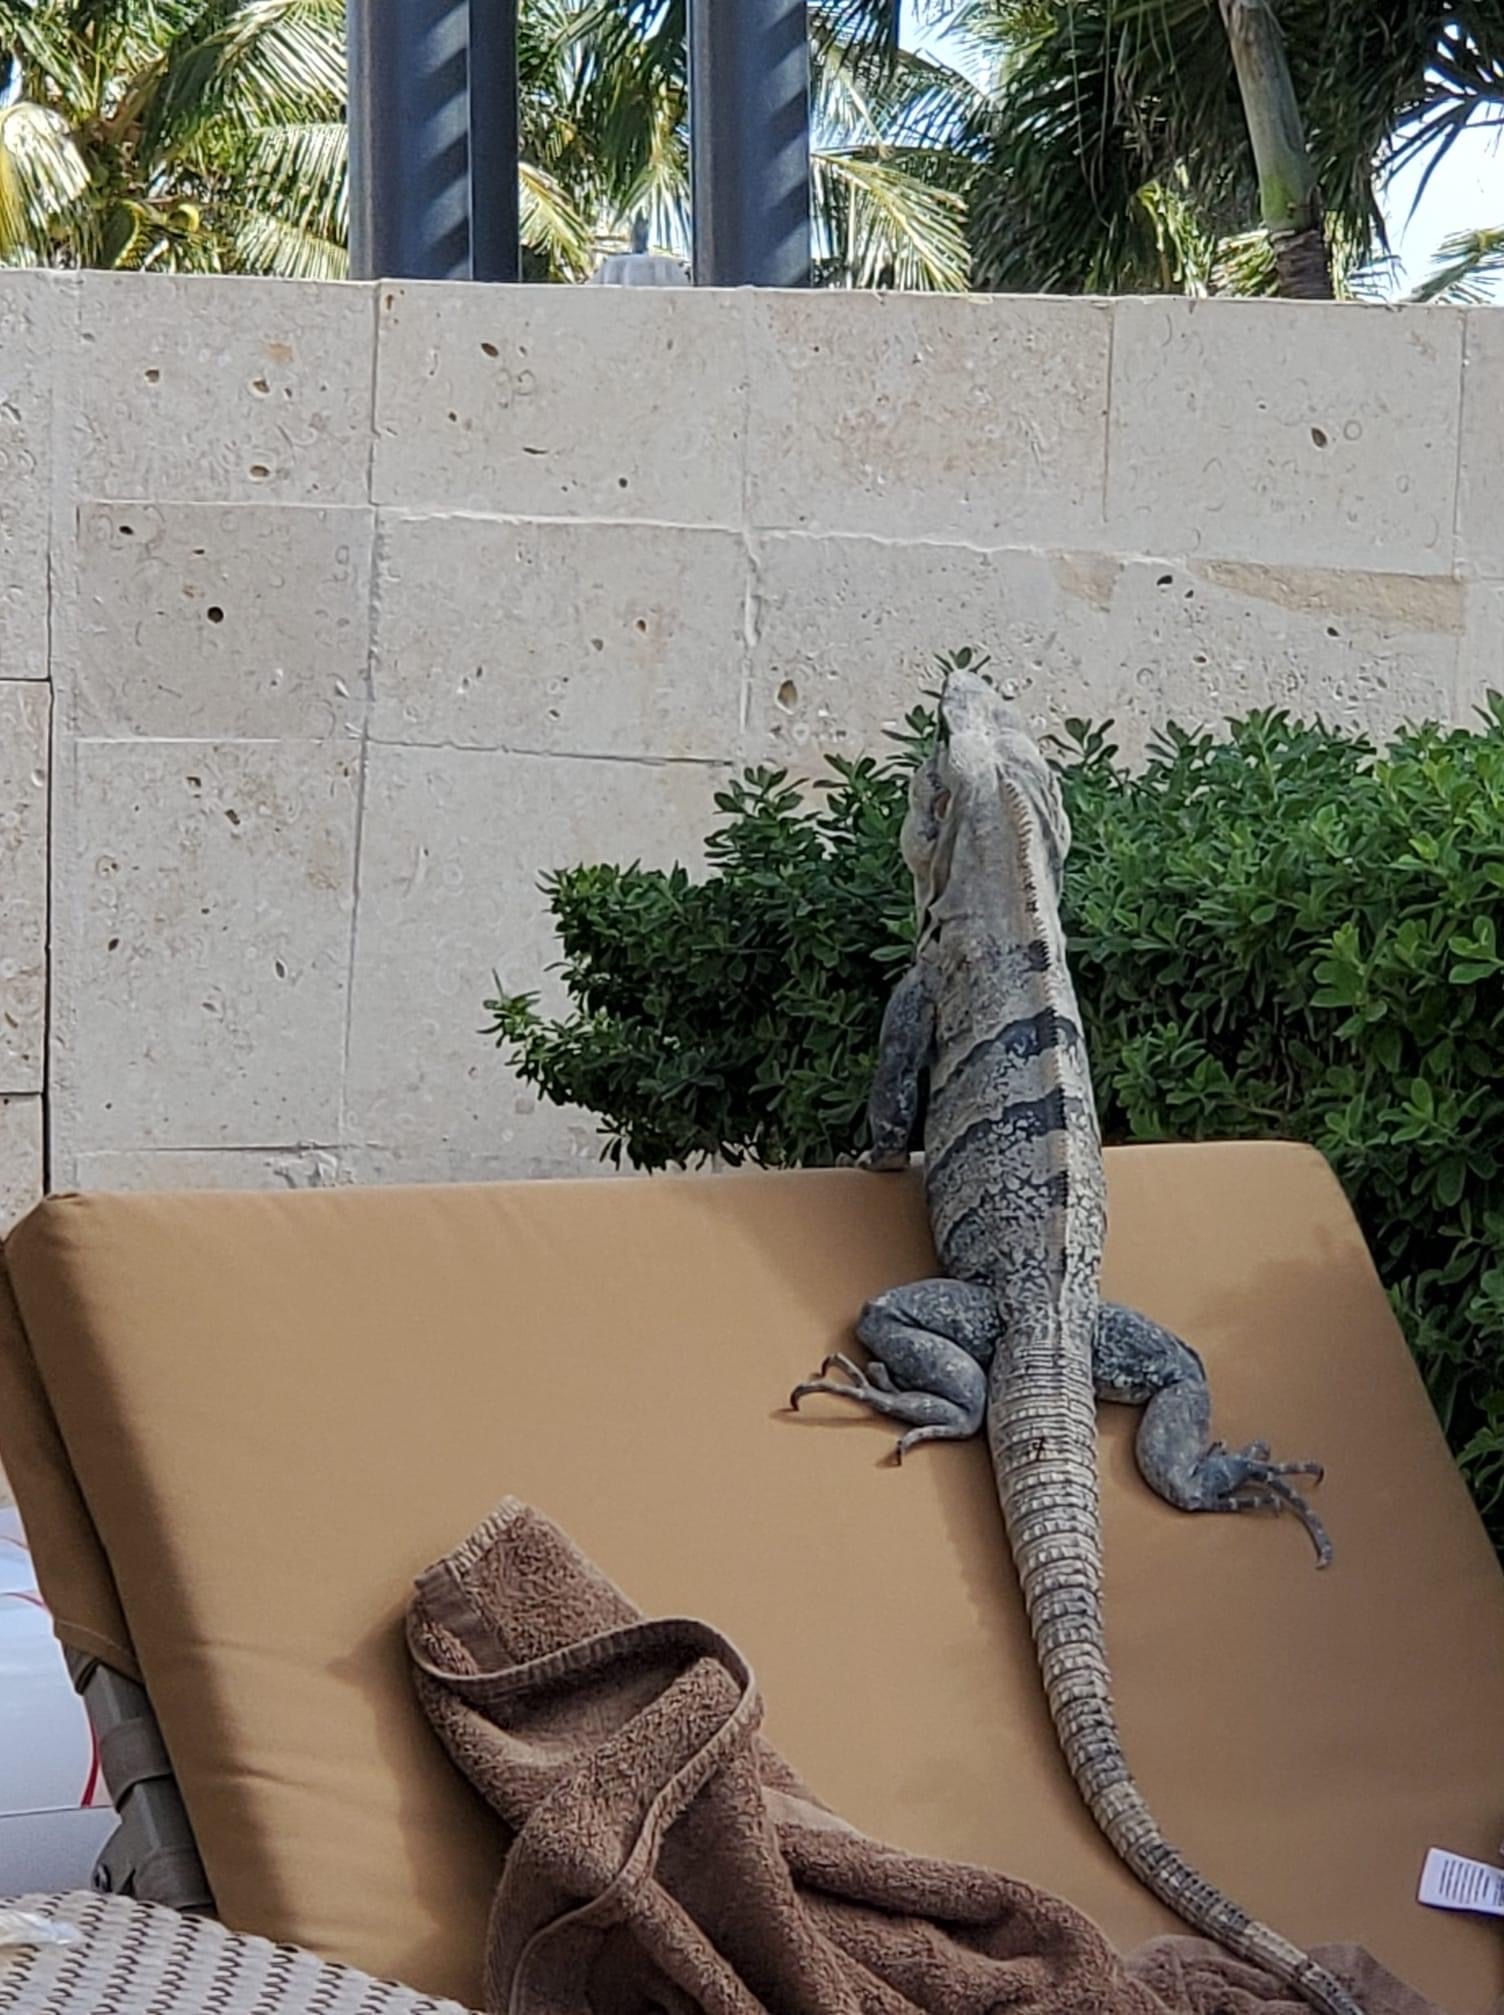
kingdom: Animalia
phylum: Chordata
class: Squamata
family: Iguanidae
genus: Ctenosaura
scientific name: Ctenosaura similis
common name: Black spiny-tailed iguana
